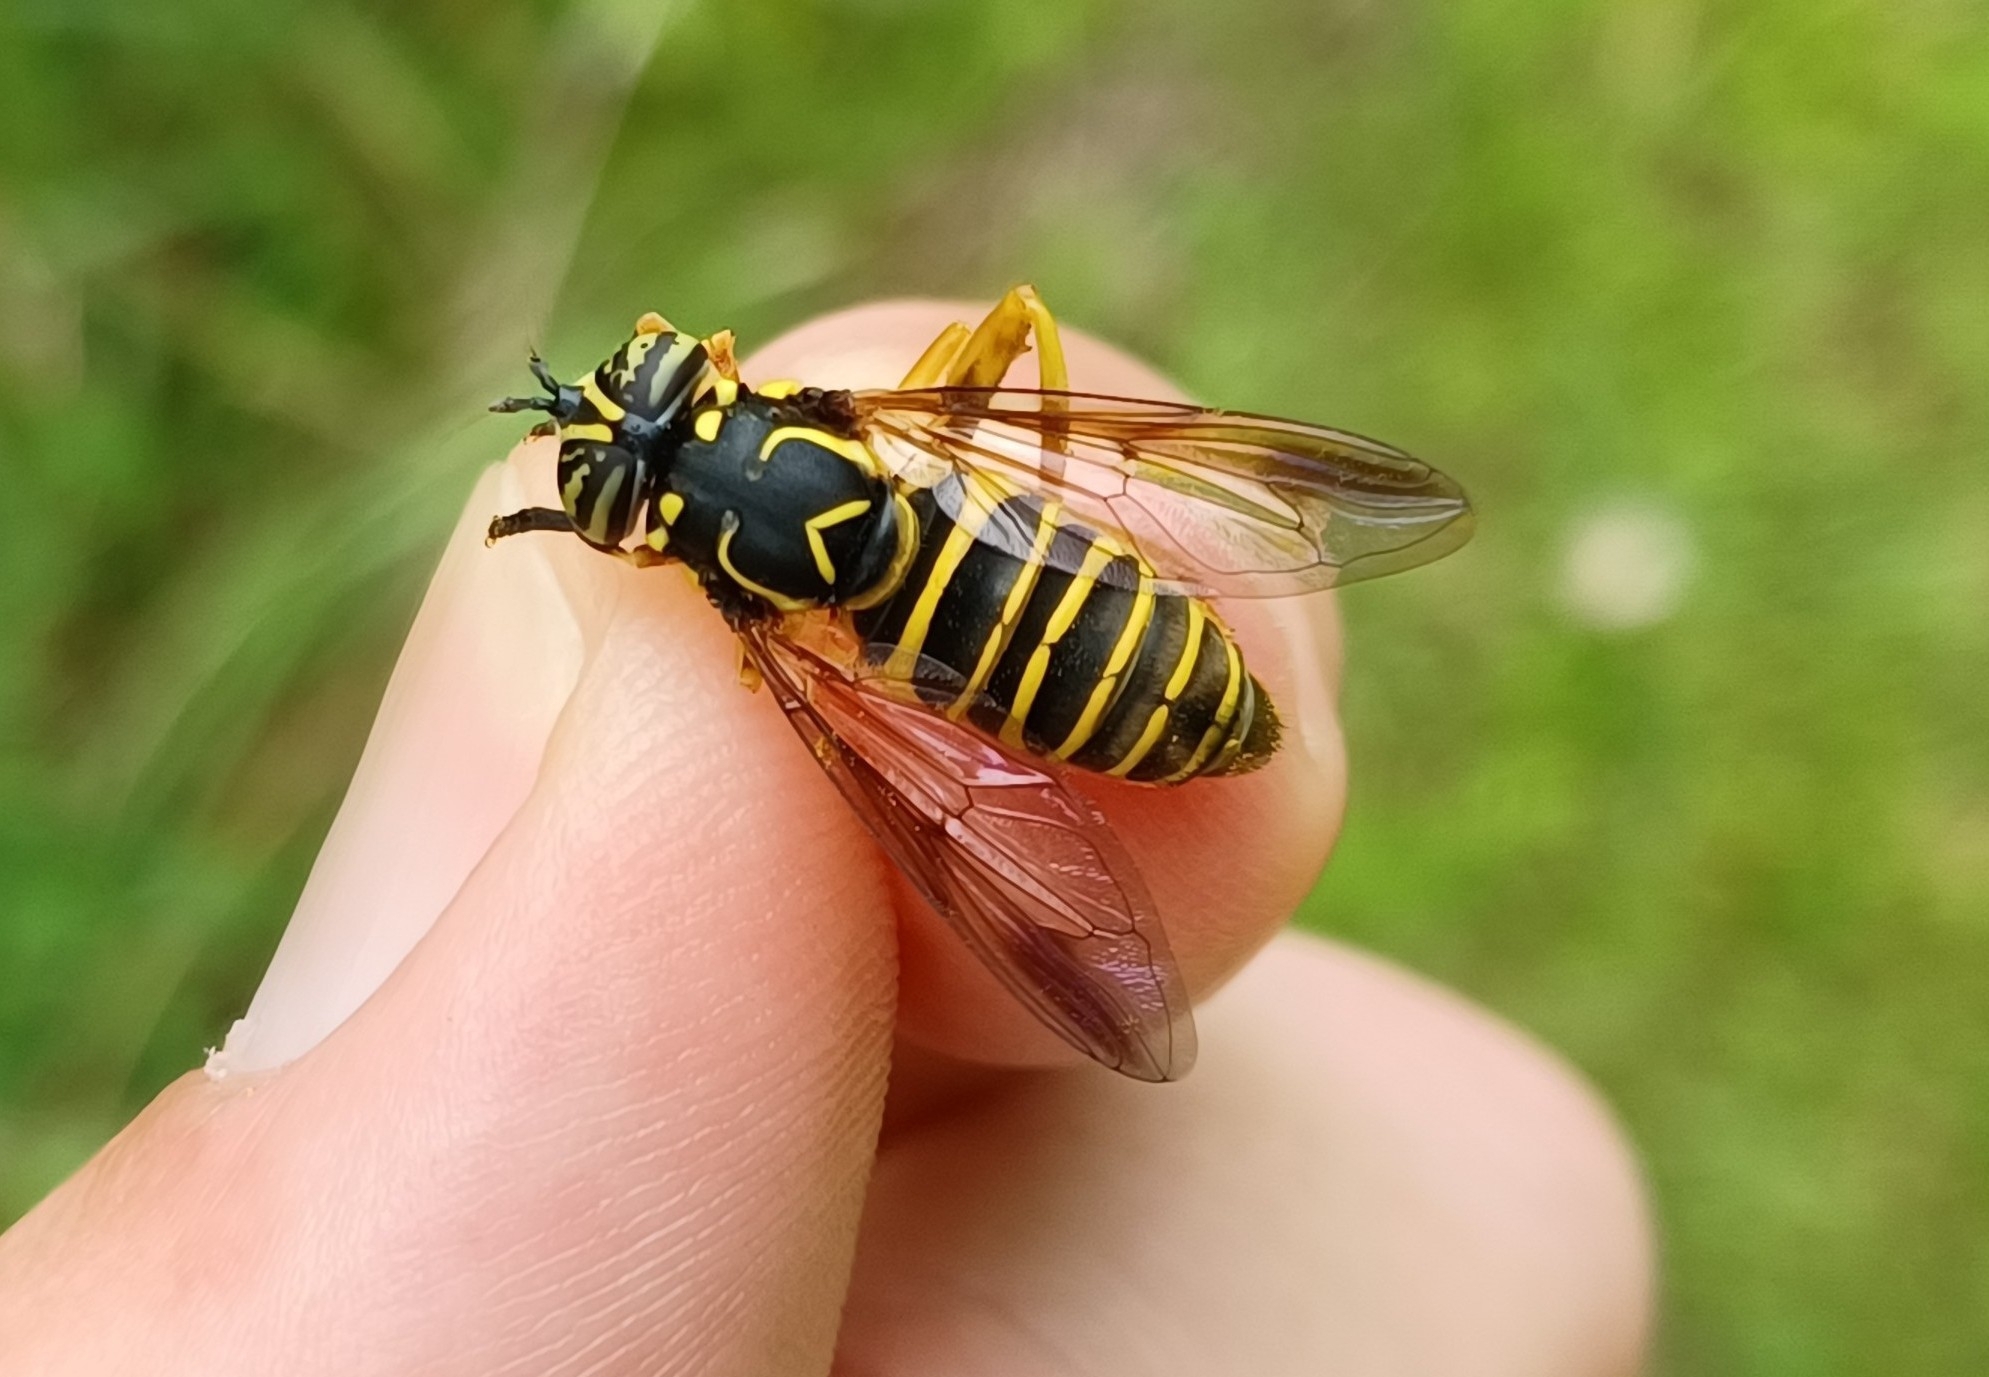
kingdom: Animalia
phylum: Arthropoda
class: Insecta
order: Diptera
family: Syrphidae
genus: Spilomyia
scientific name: Spilomyia longicornis
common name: Eastern hornet fly
